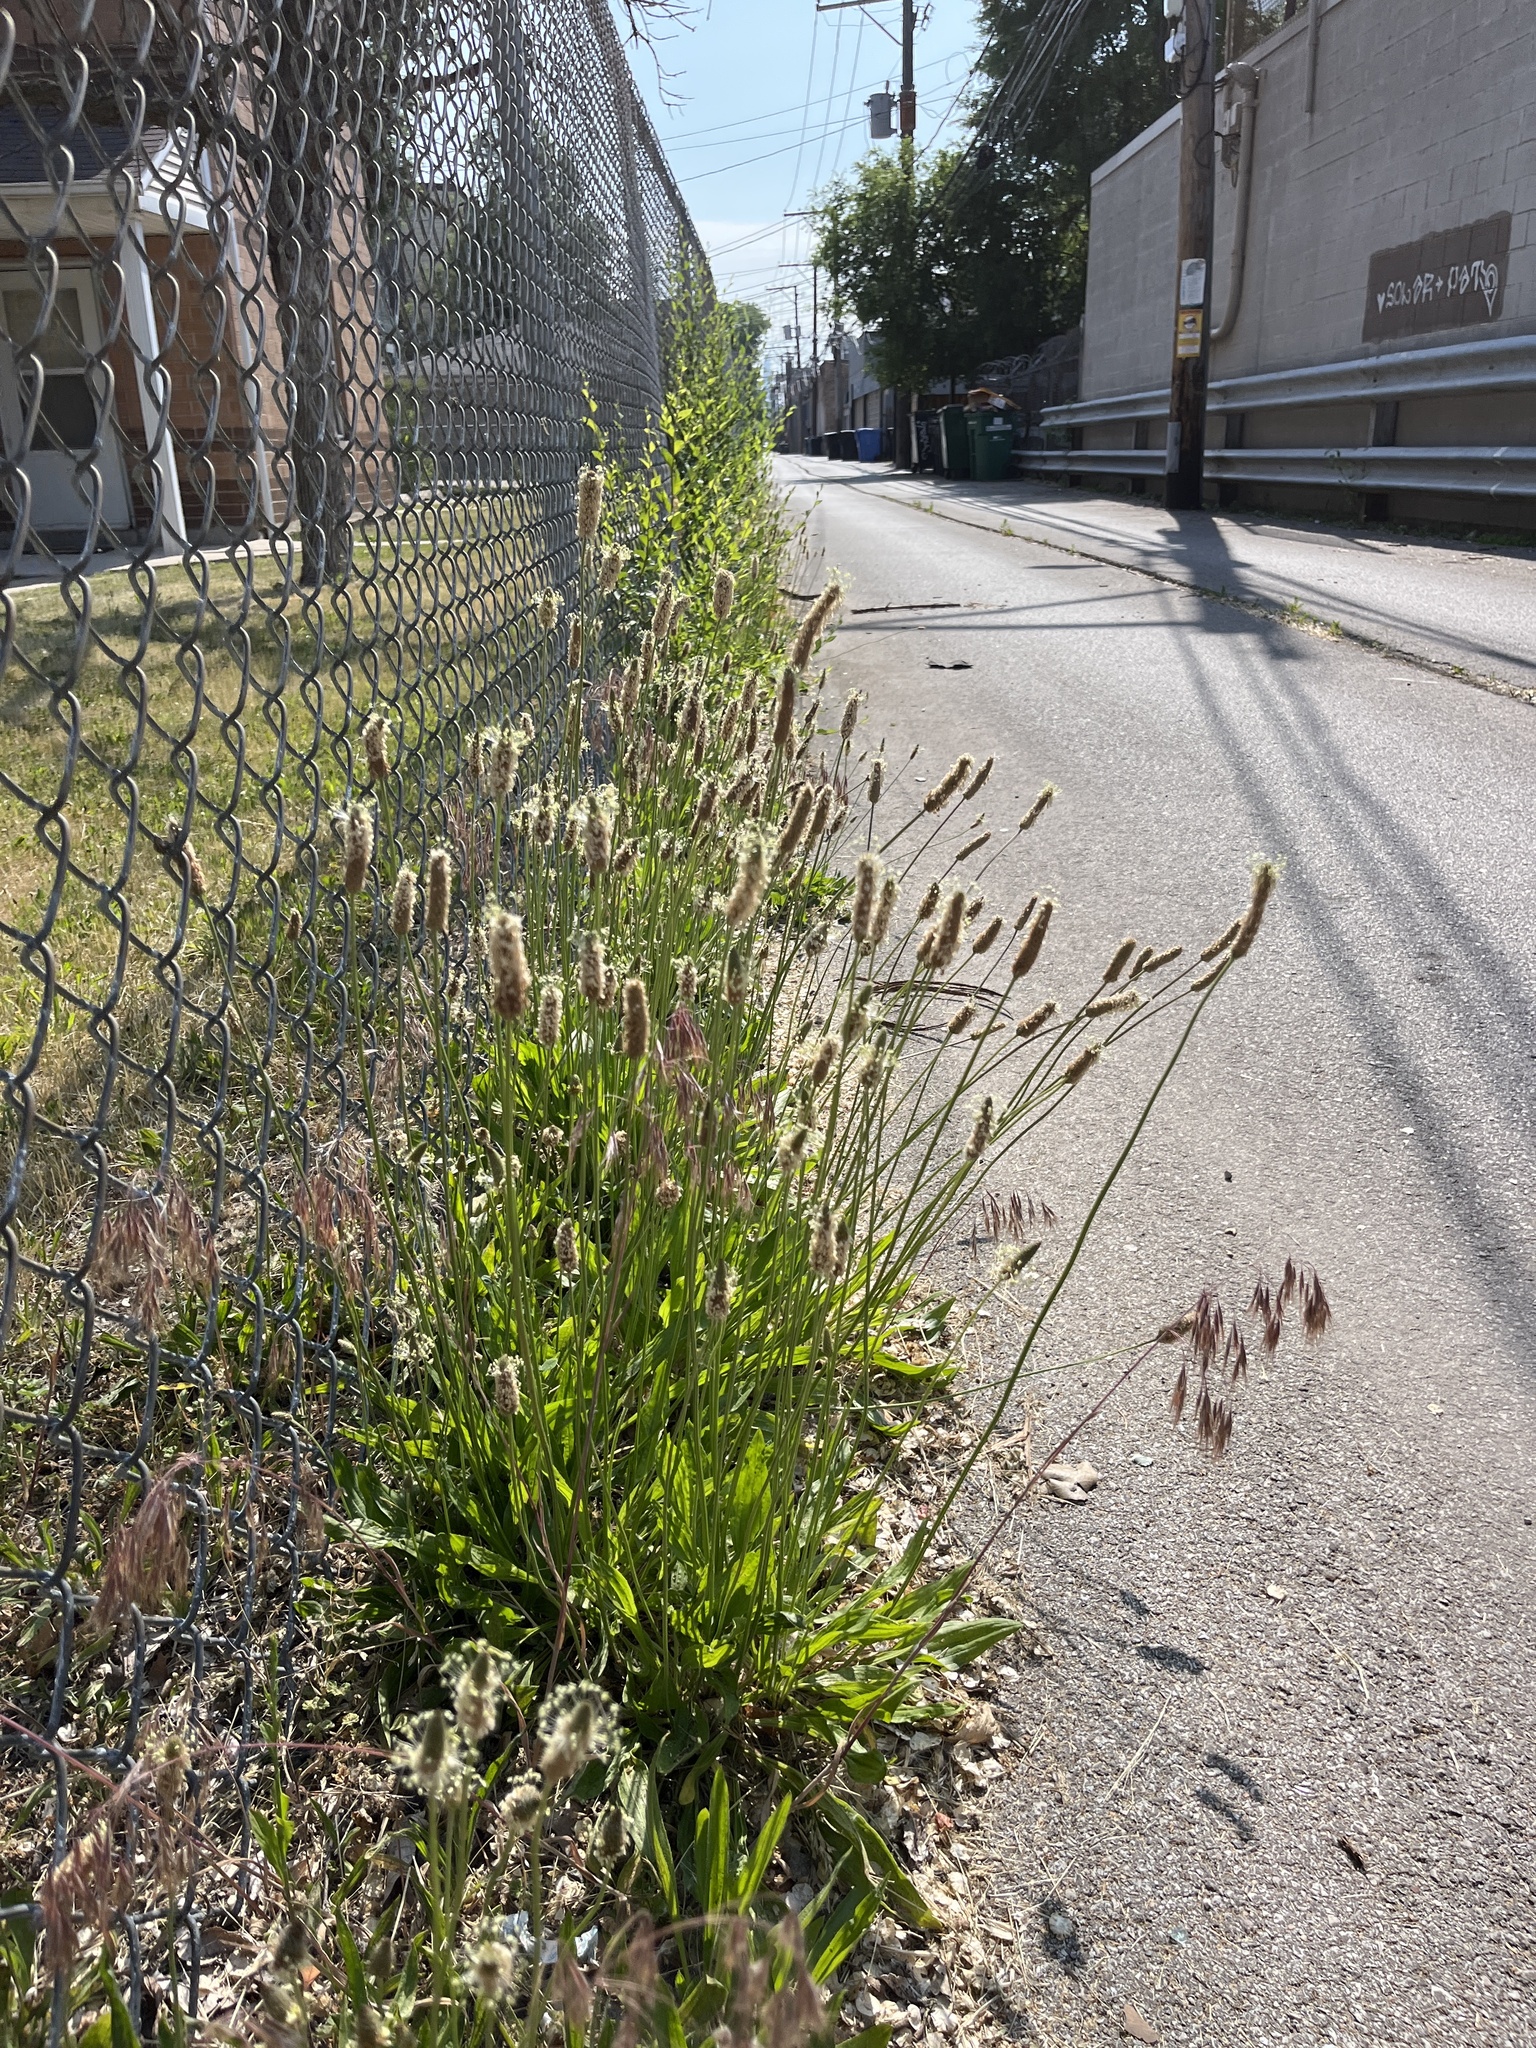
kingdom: Plantae
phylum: Tracheophyta
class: Magnoliopsida
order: Lamiales
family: Plantaginaceae
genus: Plantago
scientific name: Plantago lanceolata
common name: Ribwort plantain
